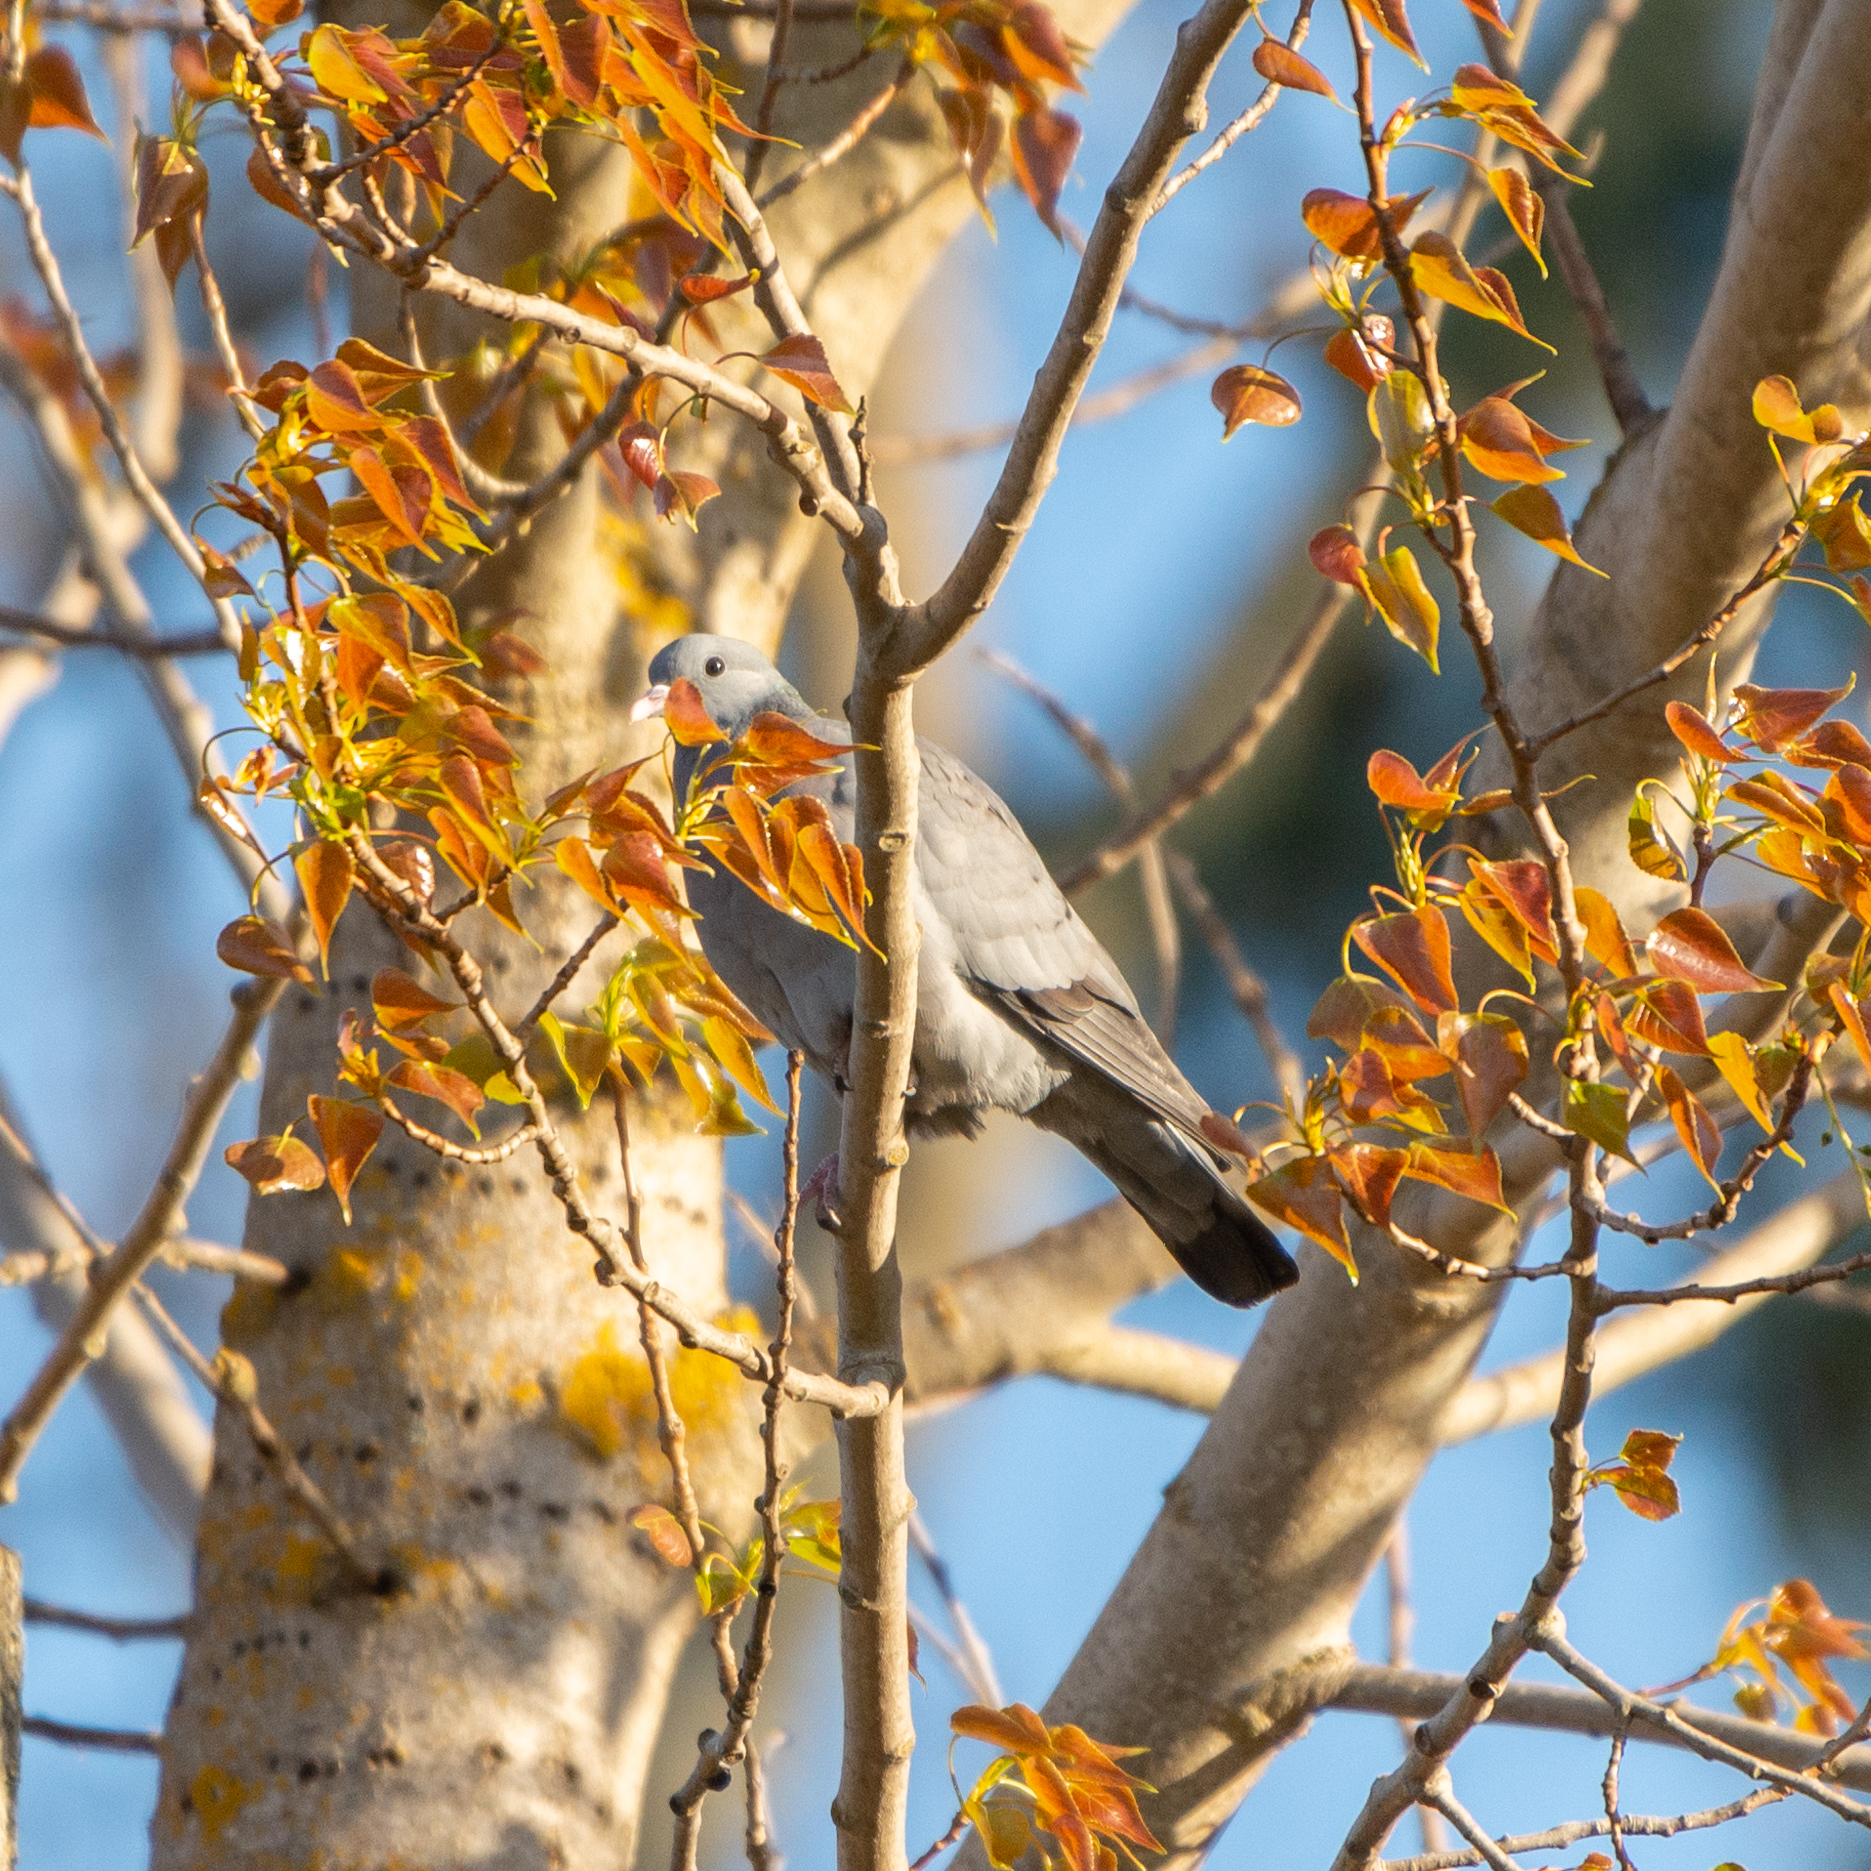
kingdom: Animalia
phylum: Chordata
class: Aves
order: Columbiformes
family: Columbidae
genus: Columba
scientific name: Columba oenas
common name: Stock dove
